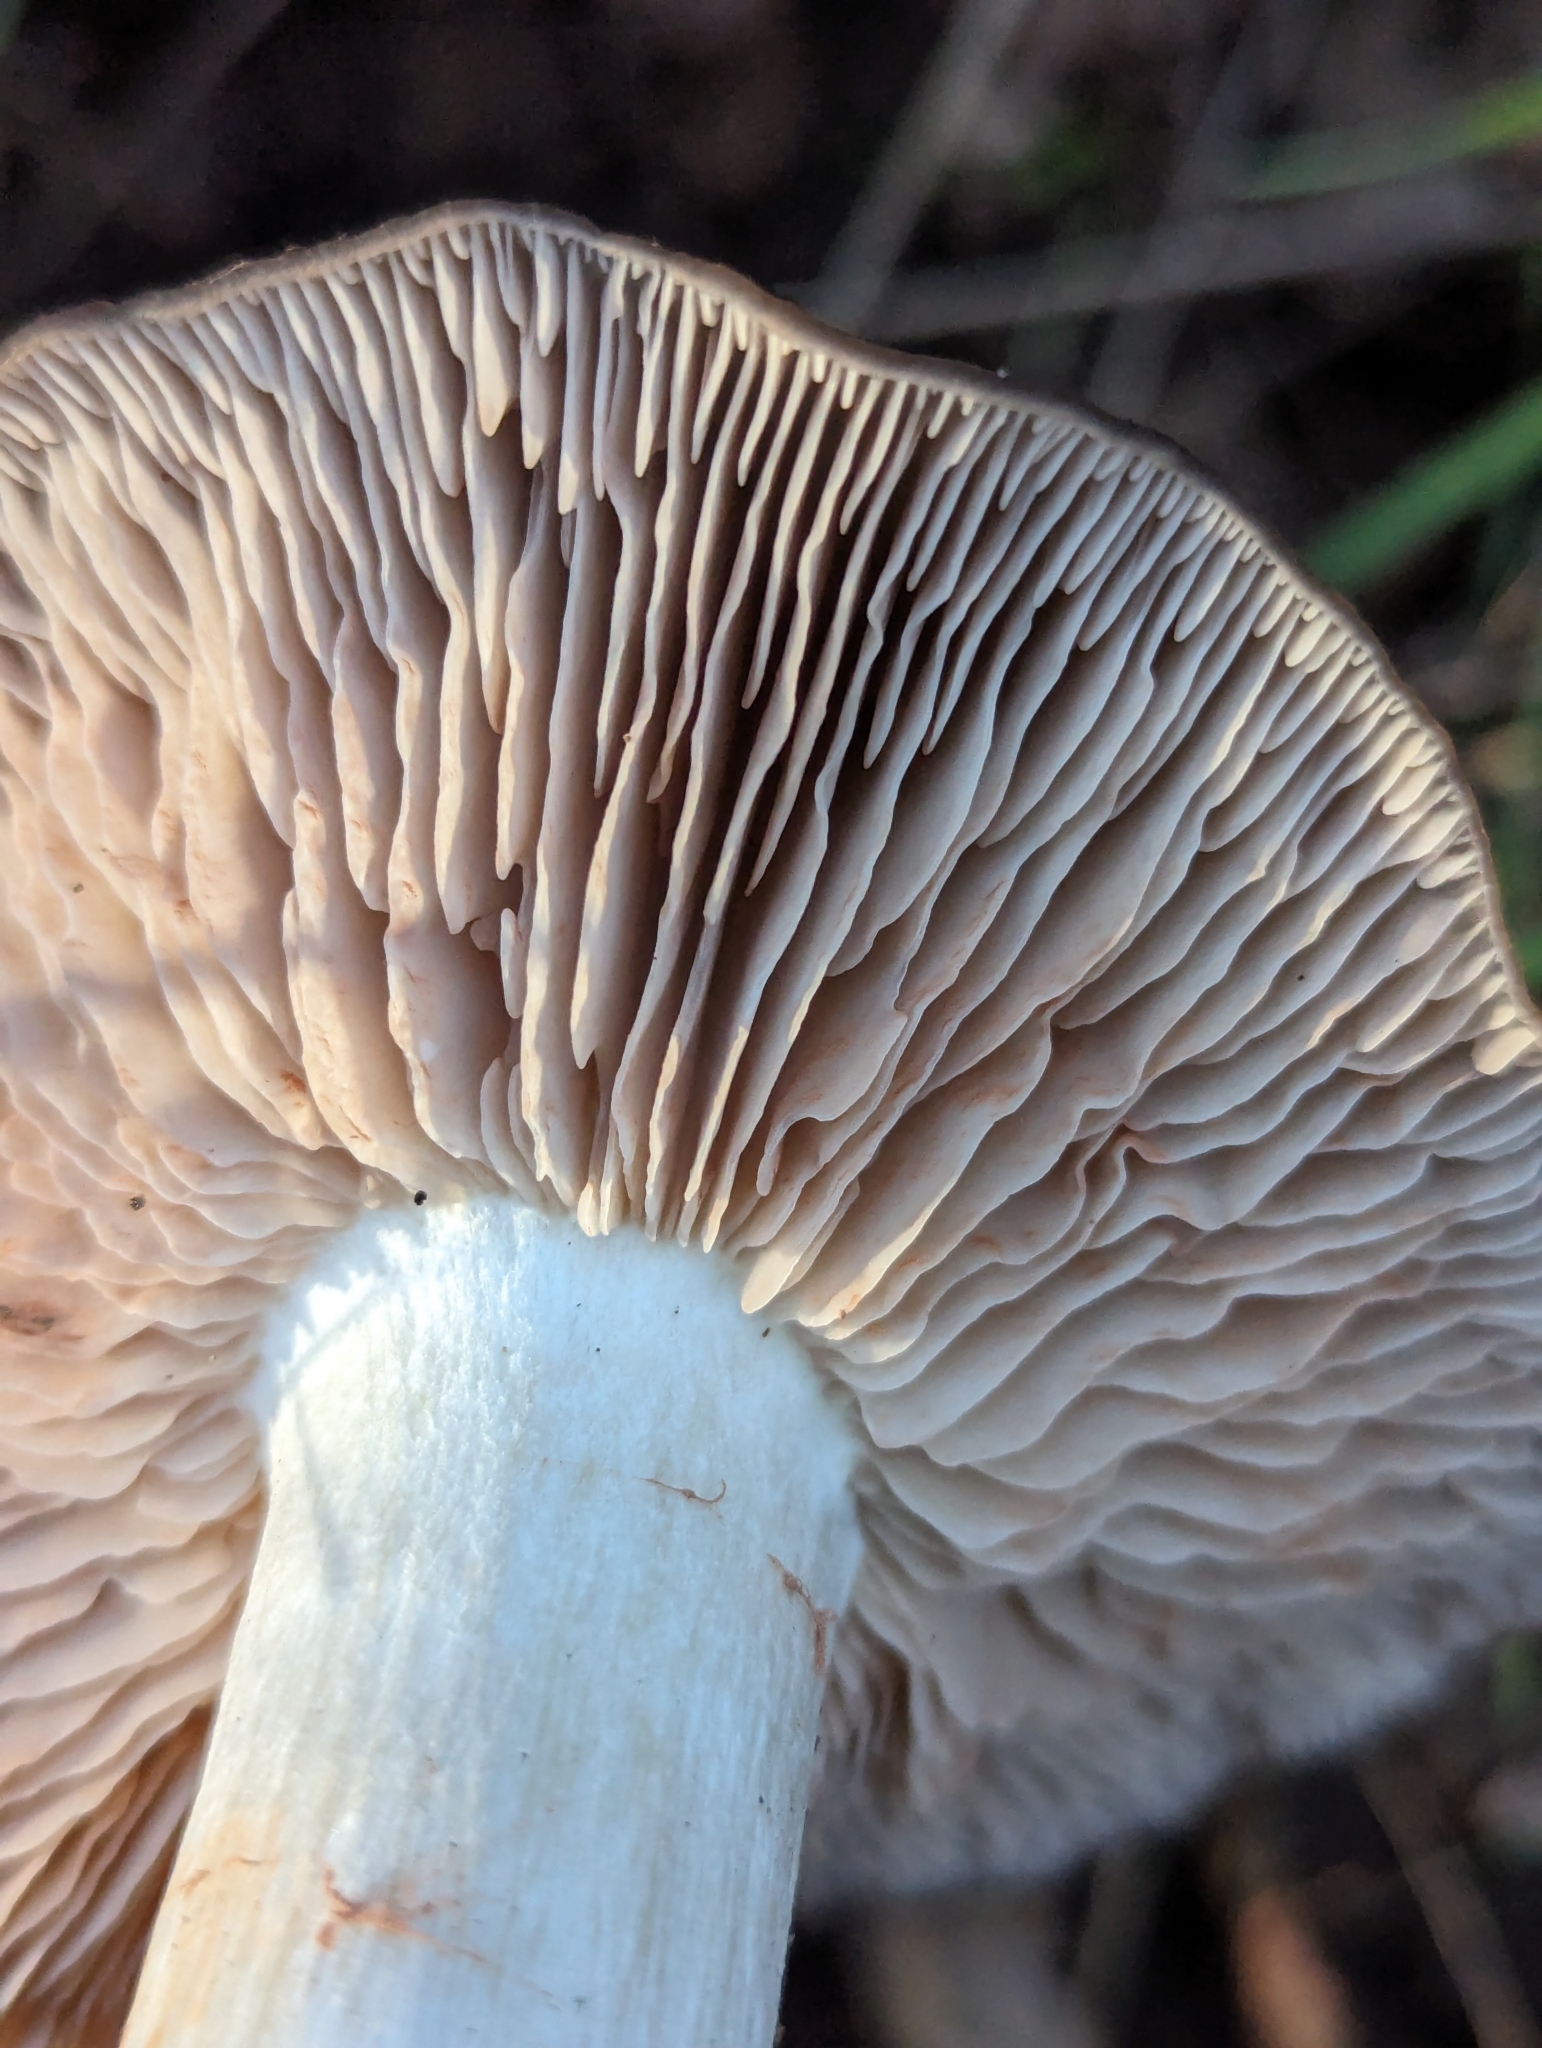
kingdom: Fungi
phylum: Basidiomycota
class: Agaricomycetes
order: Agaricales
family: Entolomataceae
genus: Entoloma
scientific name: Entoloma ferruginans
